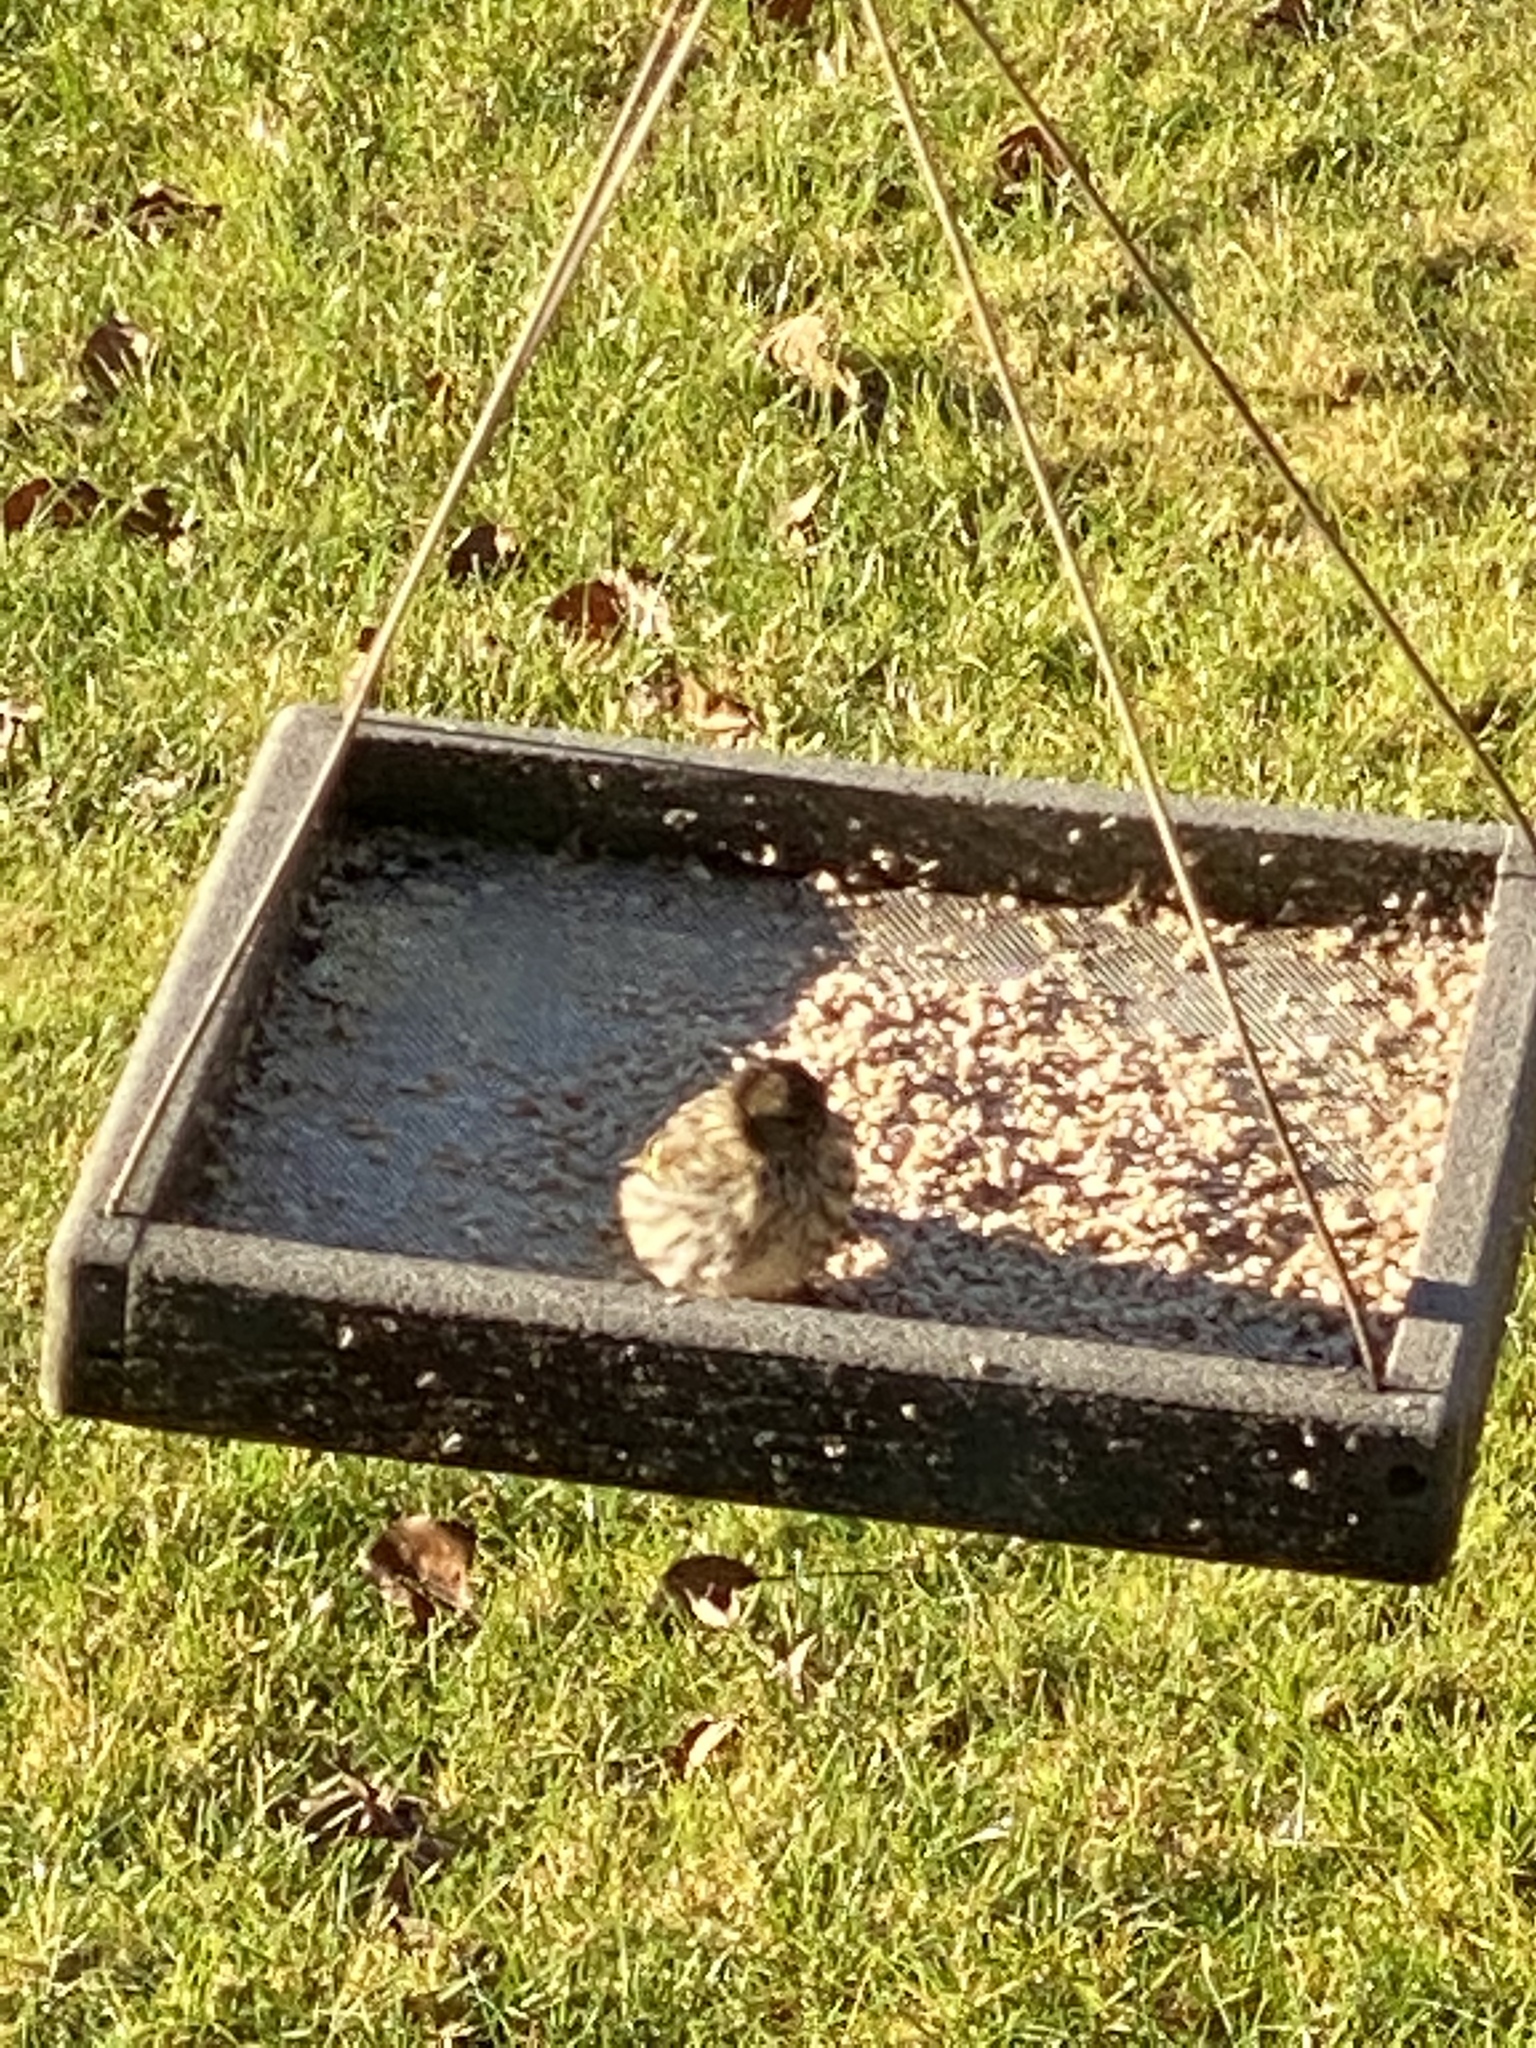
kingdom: Animalia
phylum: Chordata
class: Aves
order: Passeriformes
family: Fringillidae
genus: Spinus
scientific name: Spinus pinus
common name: Pine siskin
